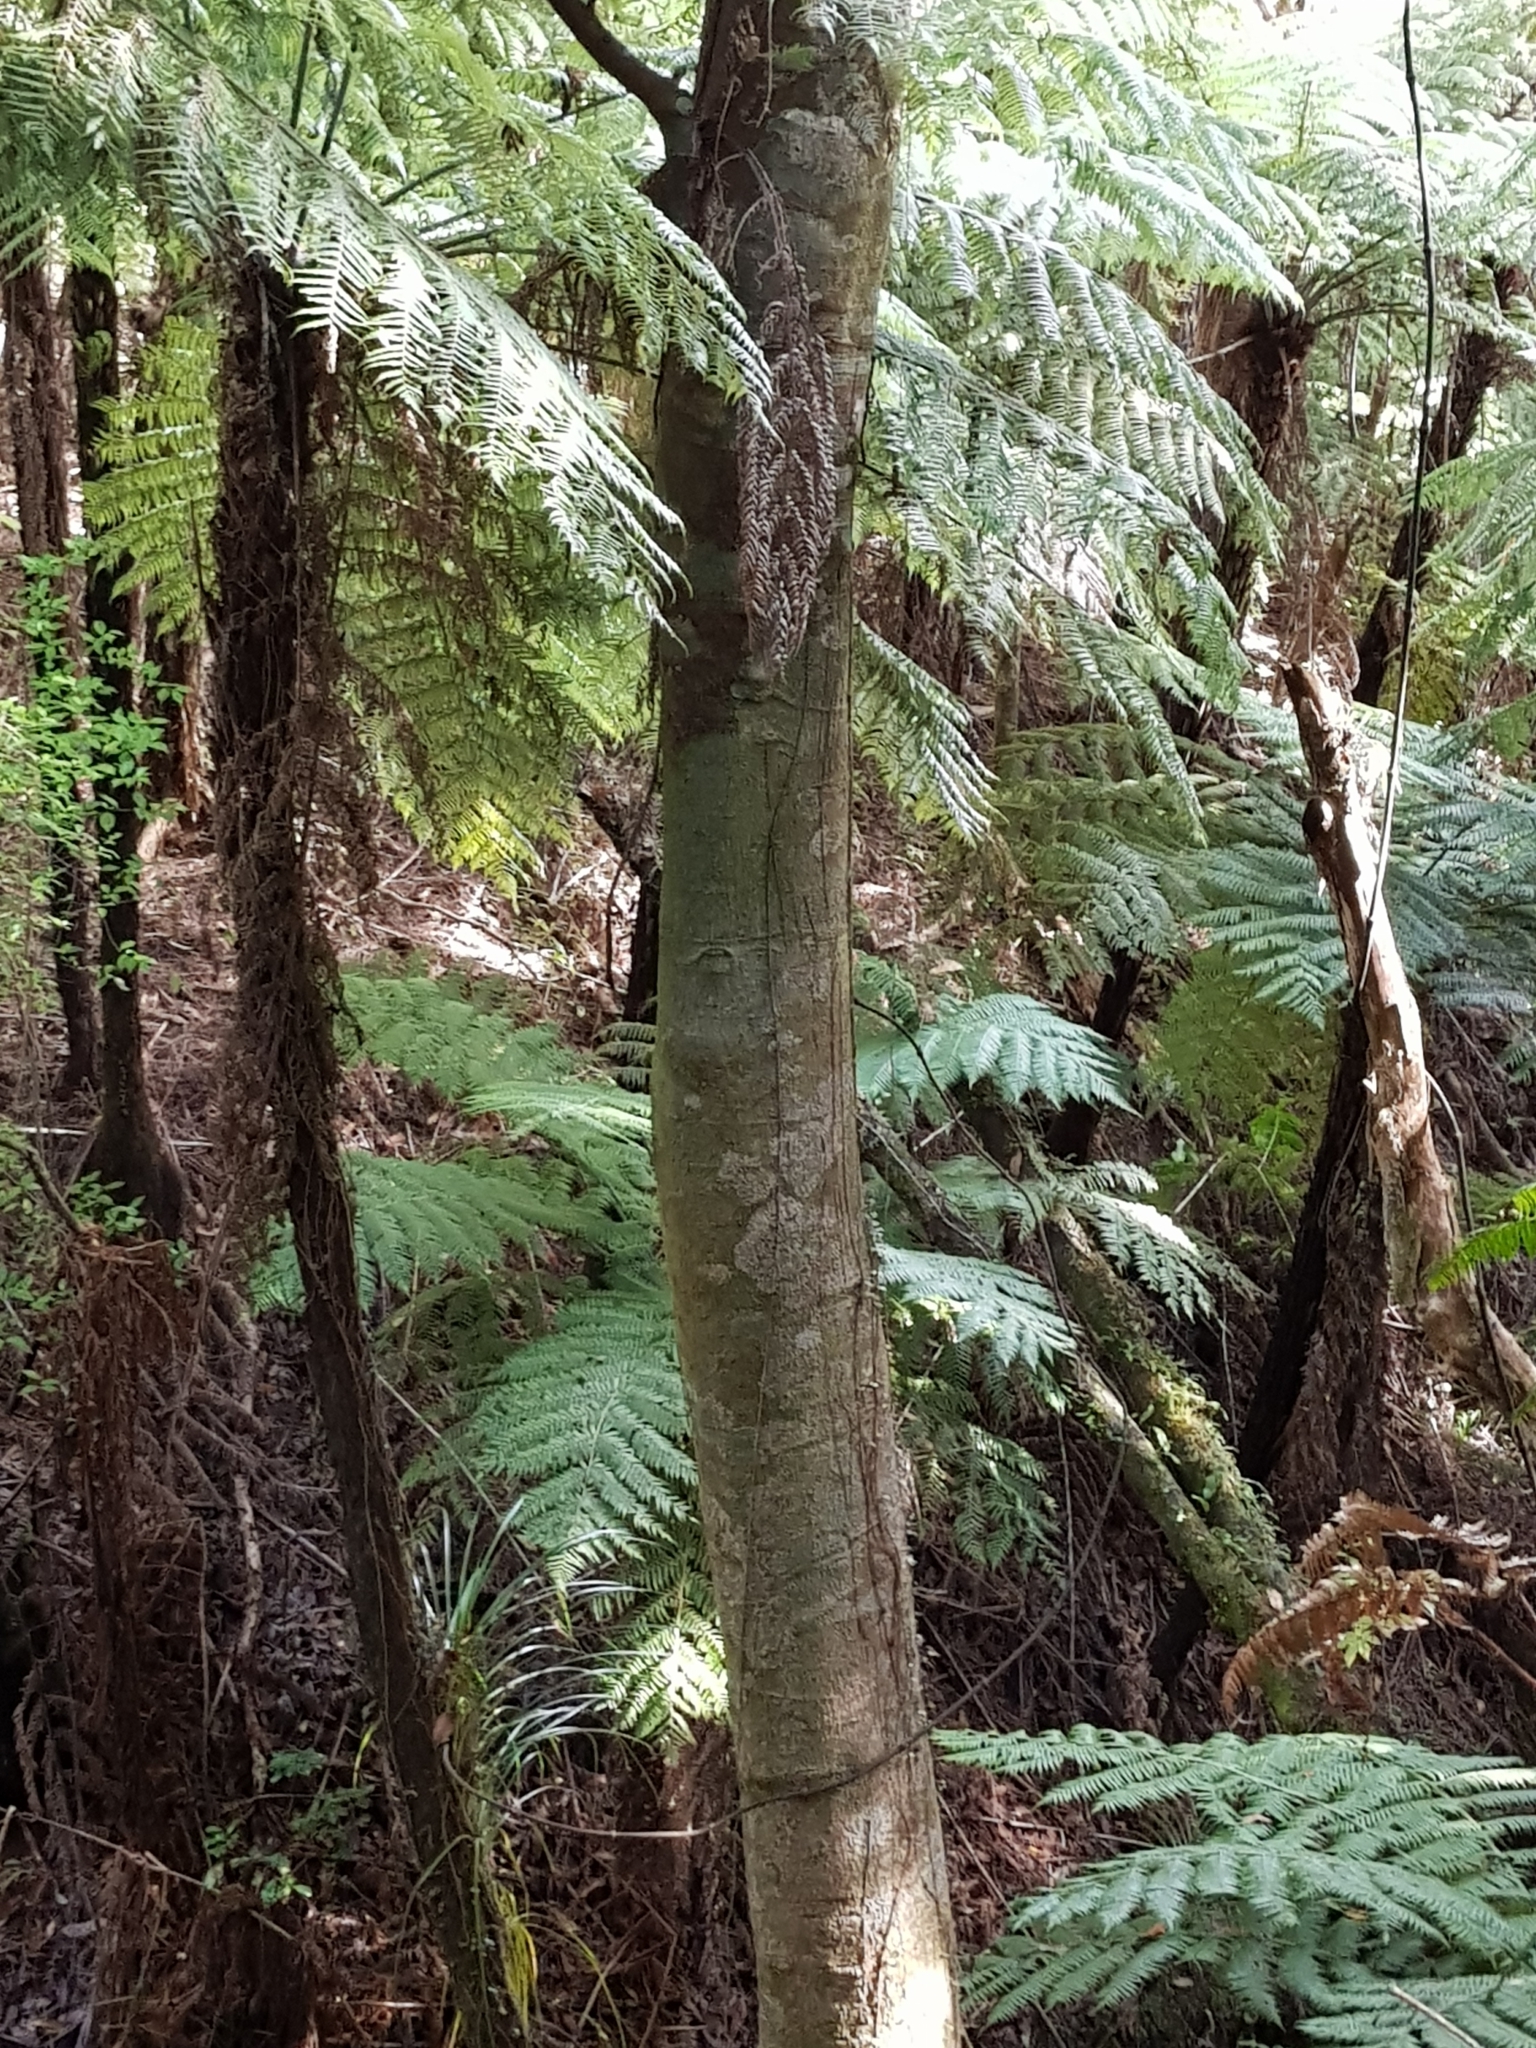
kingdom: Plantae
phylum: Tracheophyta
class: Magnoliopsida
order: Proteales
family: Proteaceae
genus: Knightia
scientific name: Knightia excelsa
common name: New zealand-honeysuckle
